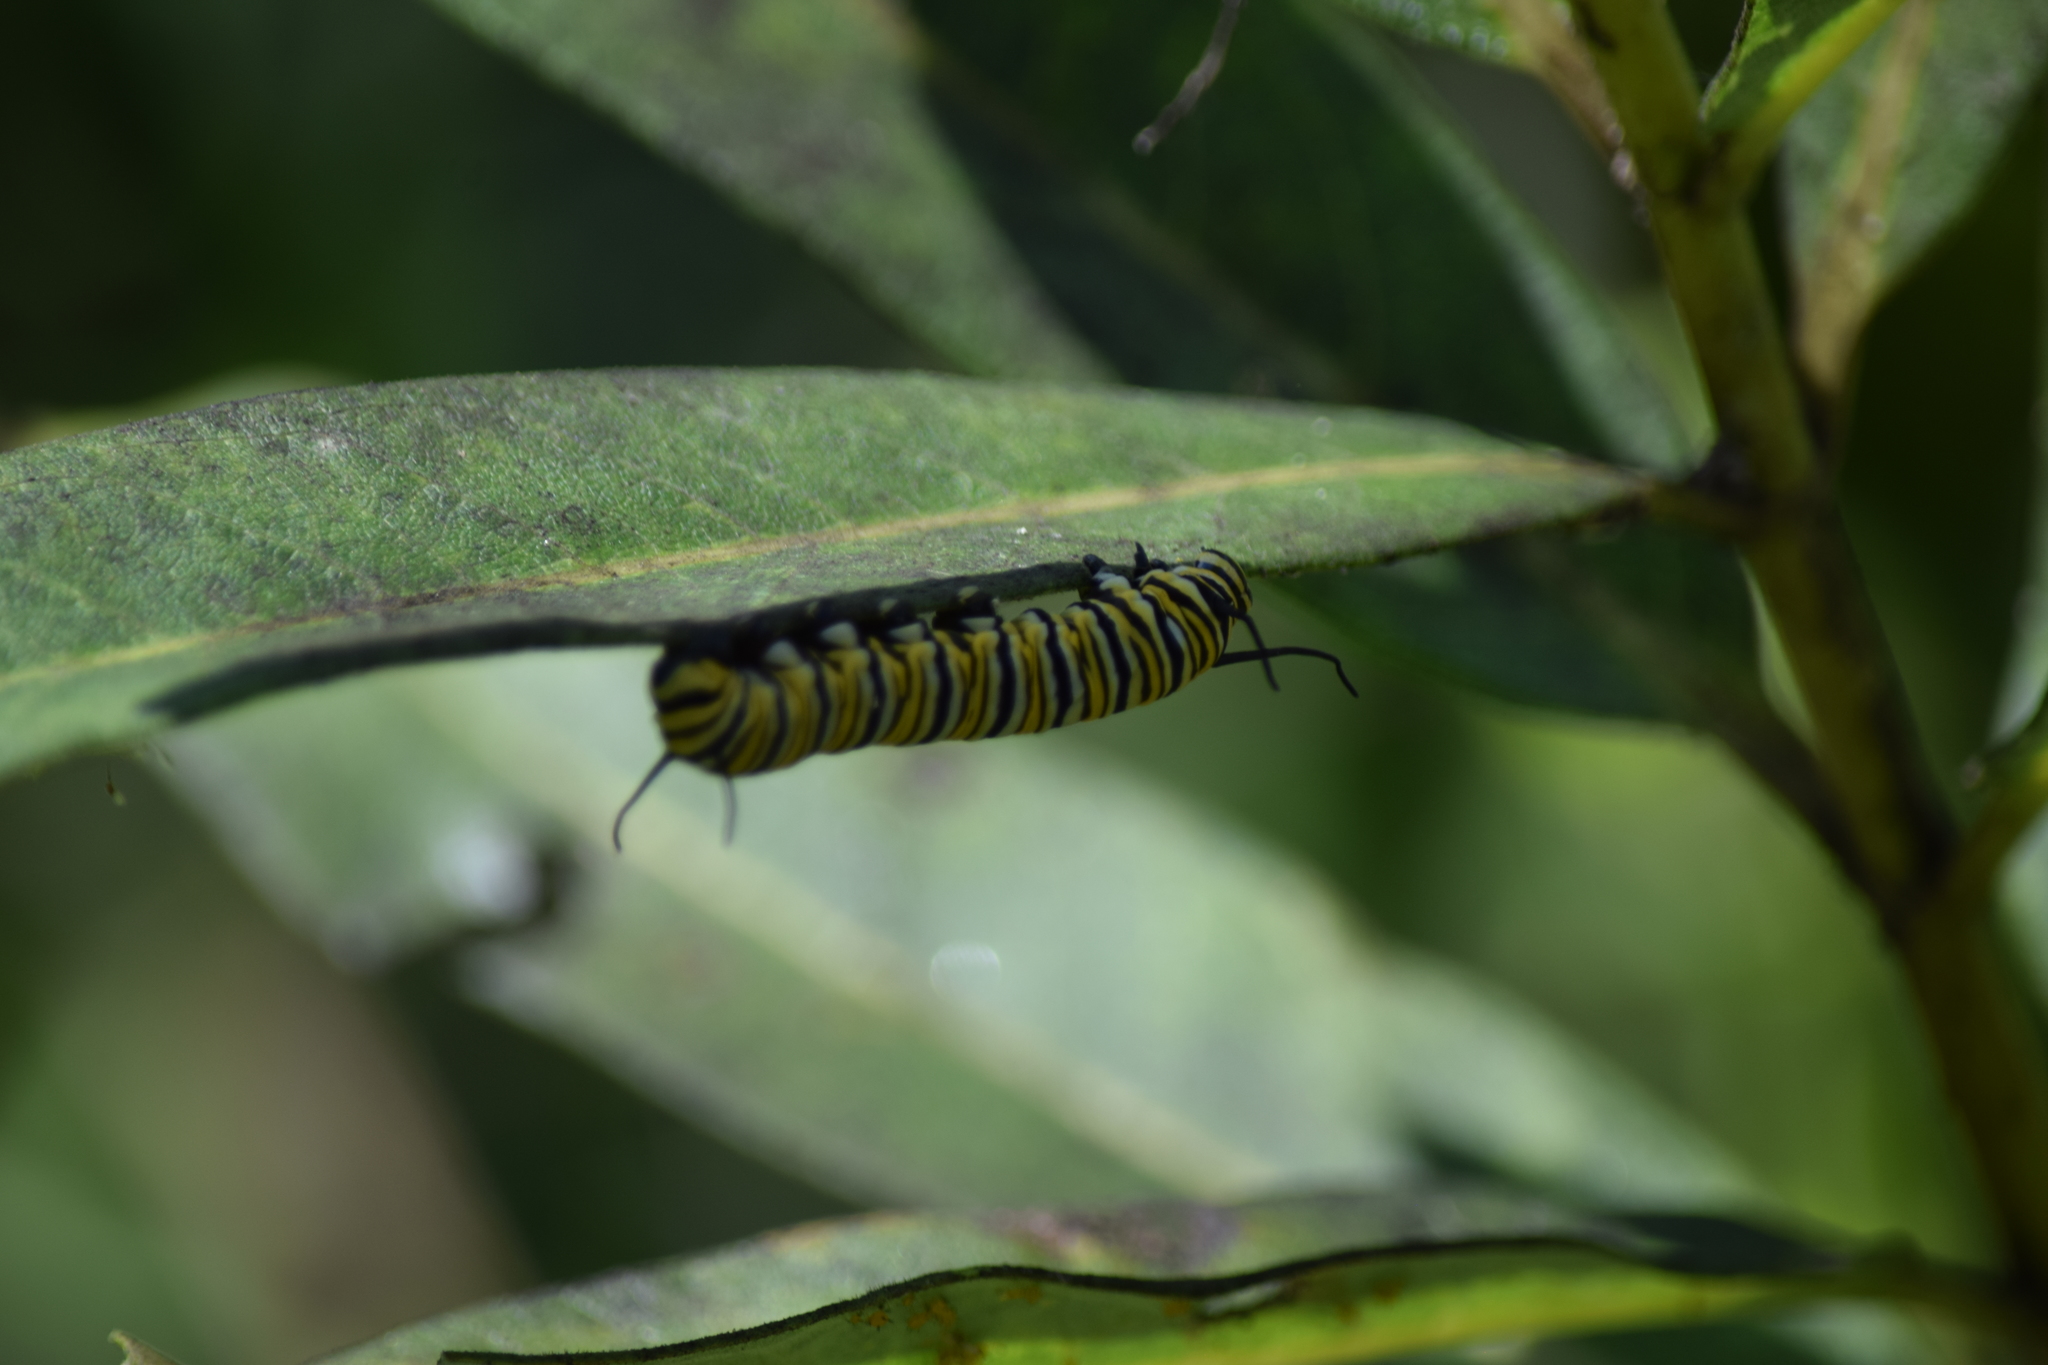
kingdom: Animalia
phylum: Arthropoda
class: Insecta
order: Lepidoptera
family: Nymphalidae
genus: Danaus
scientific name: Danaus plexippus
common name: Monarch
